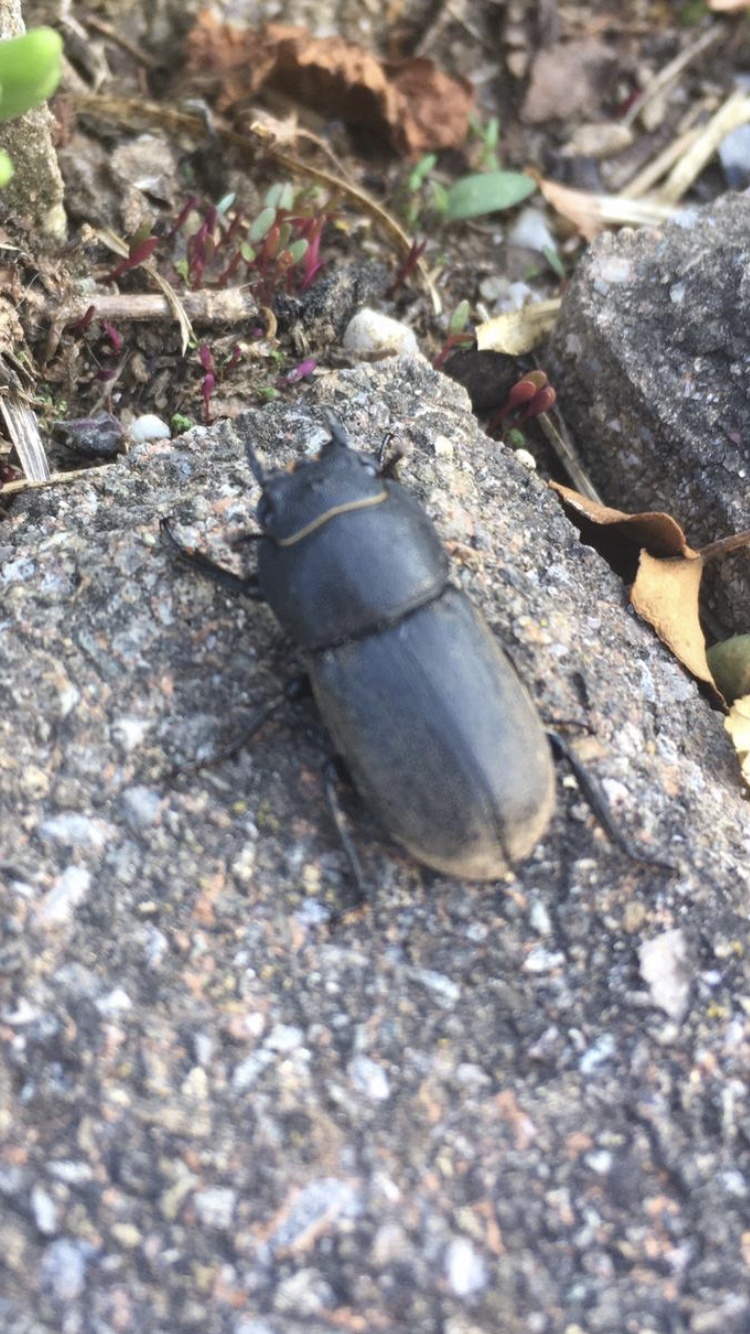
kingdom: Animalia
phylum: Arthropoda
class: Insecta
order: Coleoptera
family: Lucanidae
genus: Dorcus
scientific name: Dorcus parallelipipedus
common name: Lesser stag beetle
